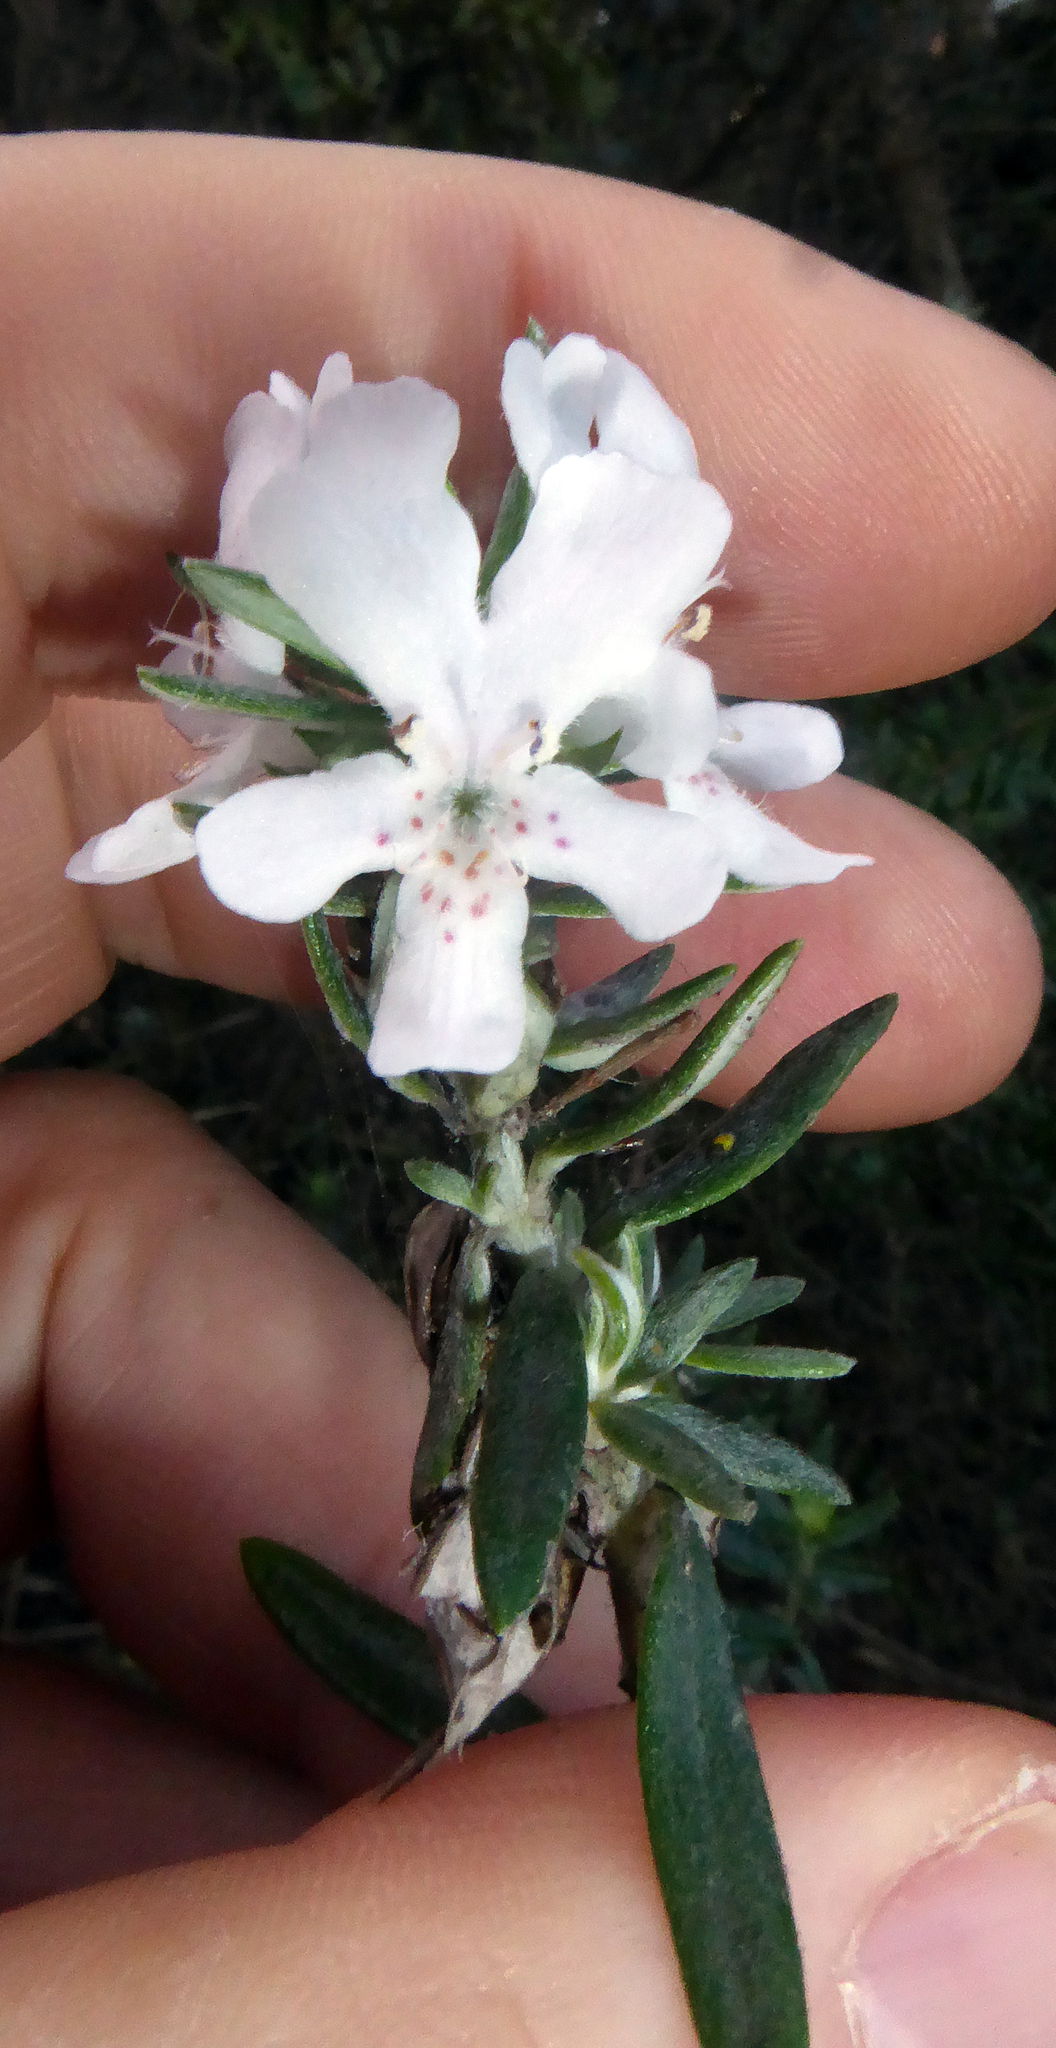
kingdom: Plantae
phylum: Tracheophyta
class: Magnoliopsida
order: Lamiales
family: Lamiaceae
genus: Westringia
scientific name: Westringia fruticosa
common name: Coastal-rosemary
